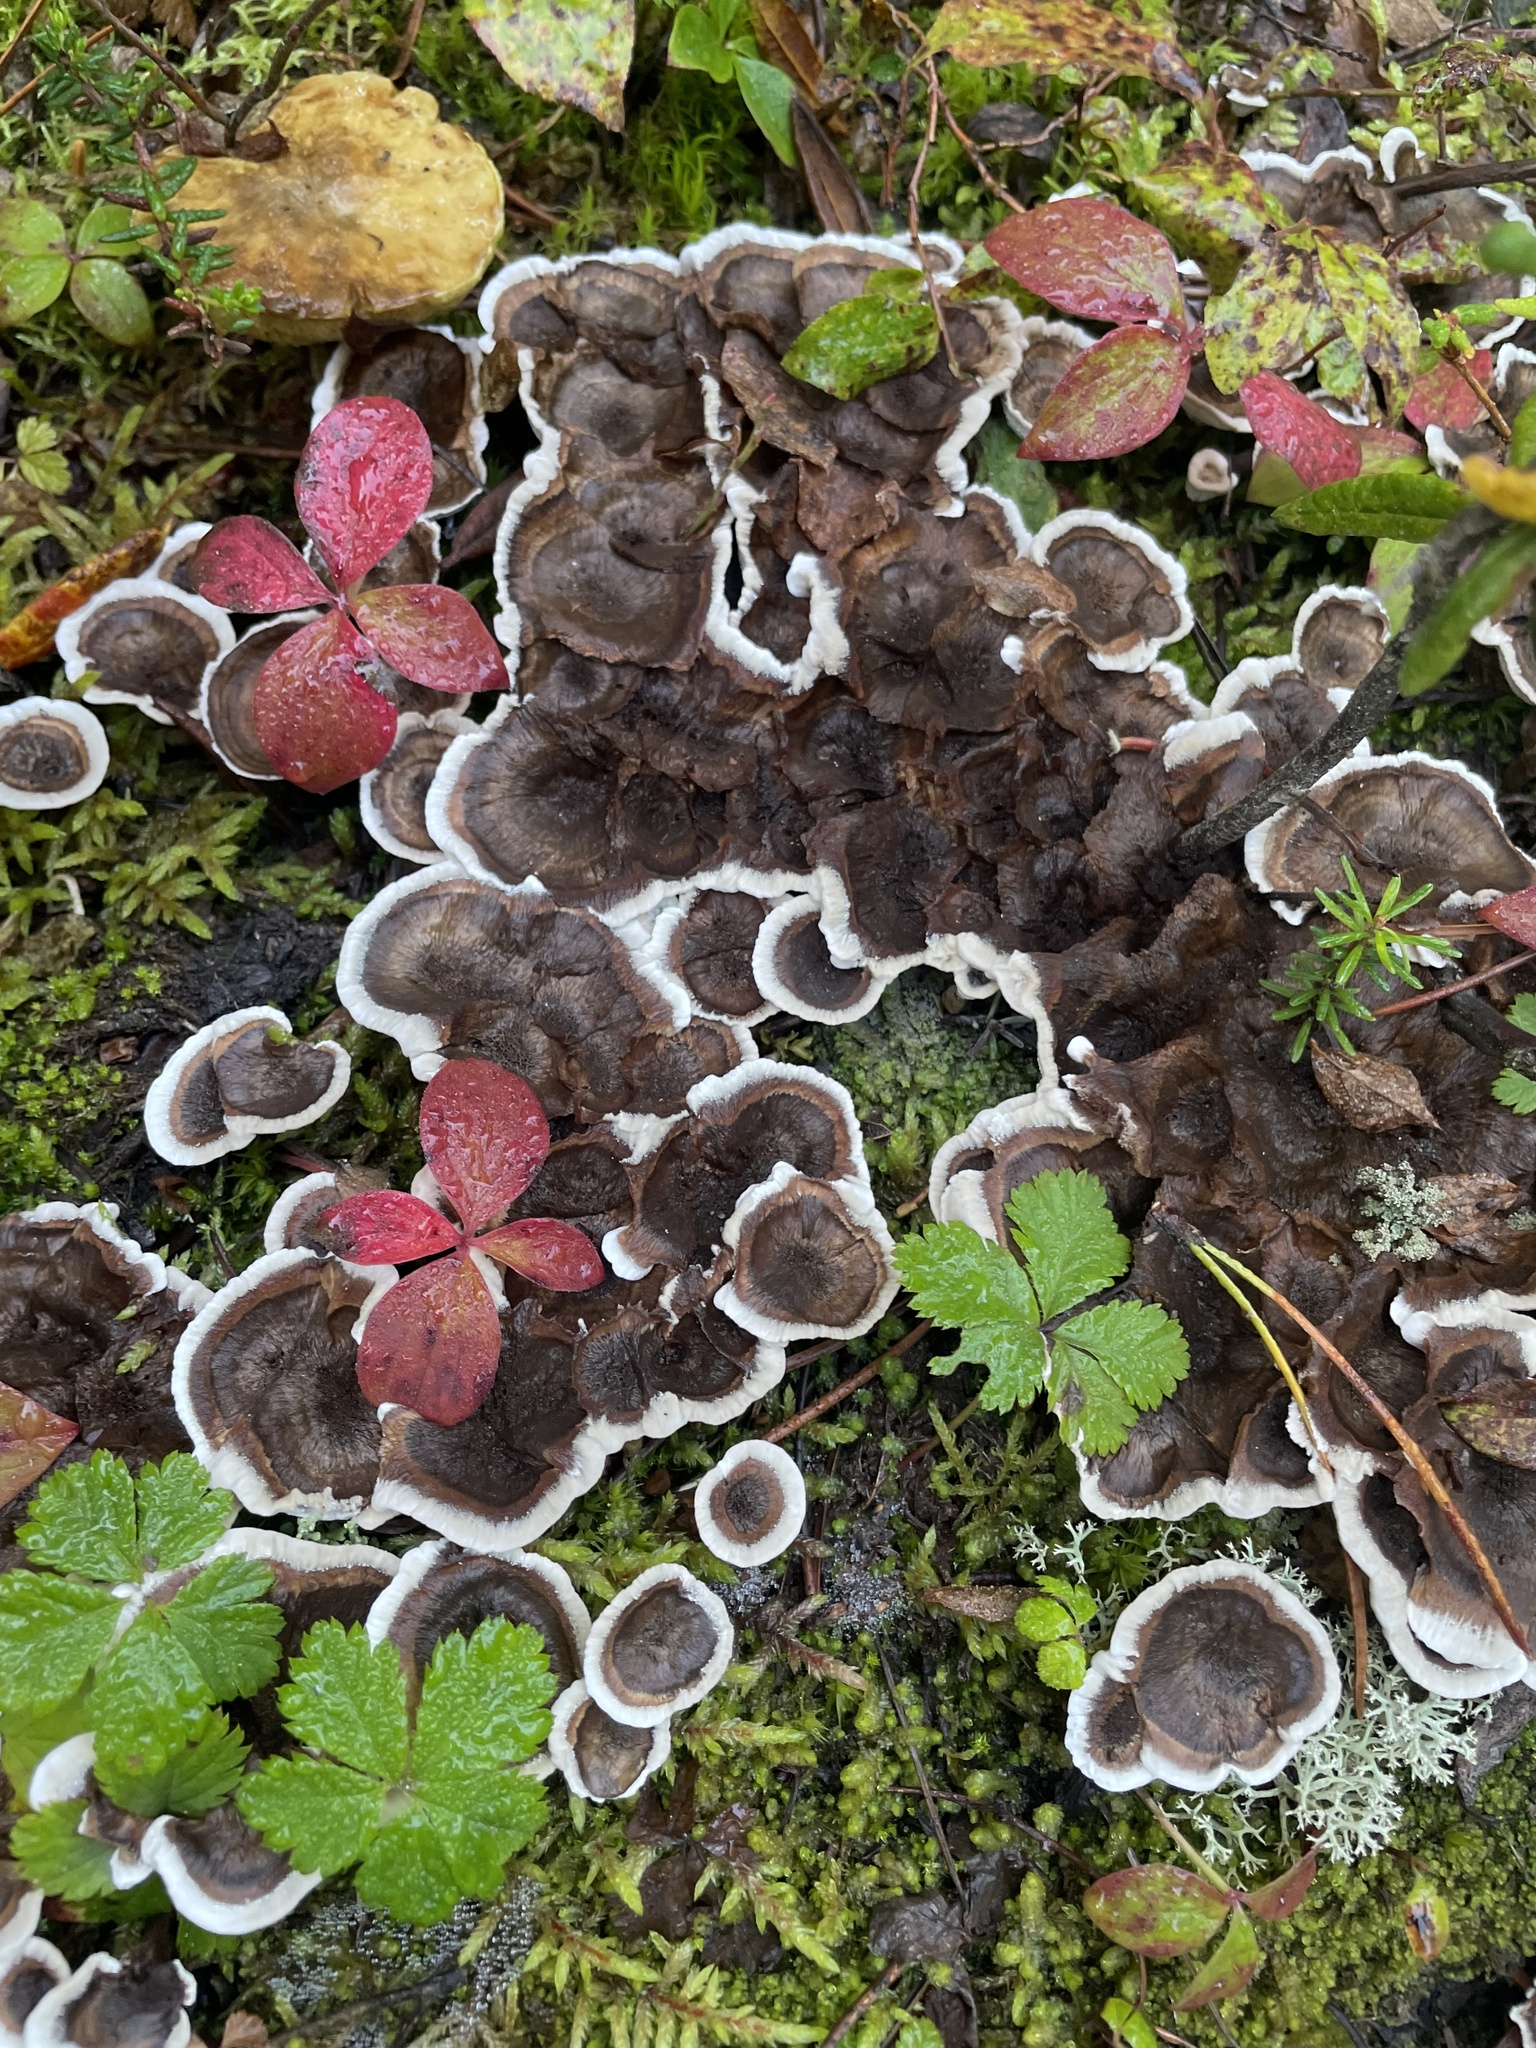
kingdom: Plantae
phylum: Tracheophyta
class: Magnoliopsida
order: Cornales
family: Cornaceae
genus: Cornus
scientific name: Cornus canadensis
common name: Creeping dogwood
